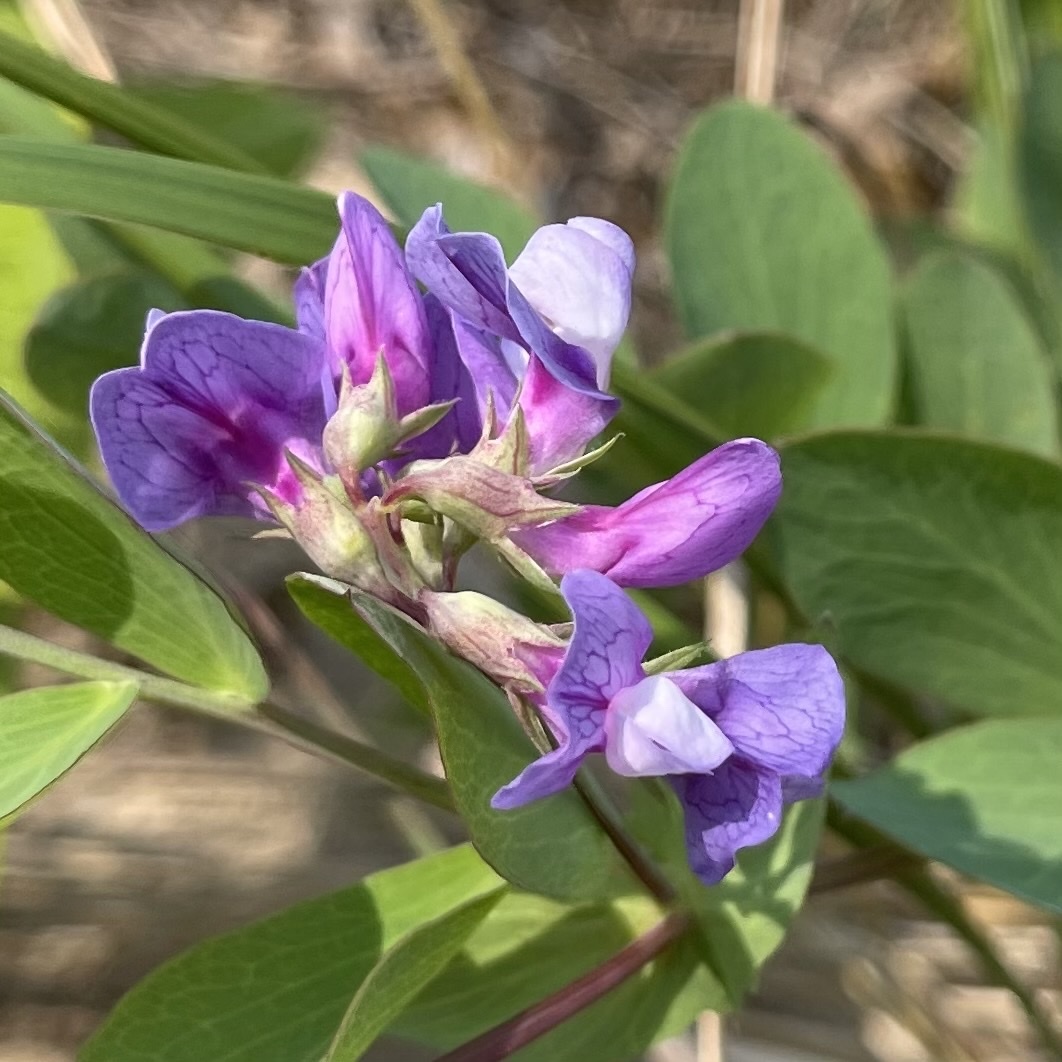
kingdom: Plantae
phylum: Tracheophyta
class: Magnoliopsida
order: Fabales
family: Fabaceae
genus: Lathyrus
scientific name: Lathyrus japonicus
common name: Sea pea
